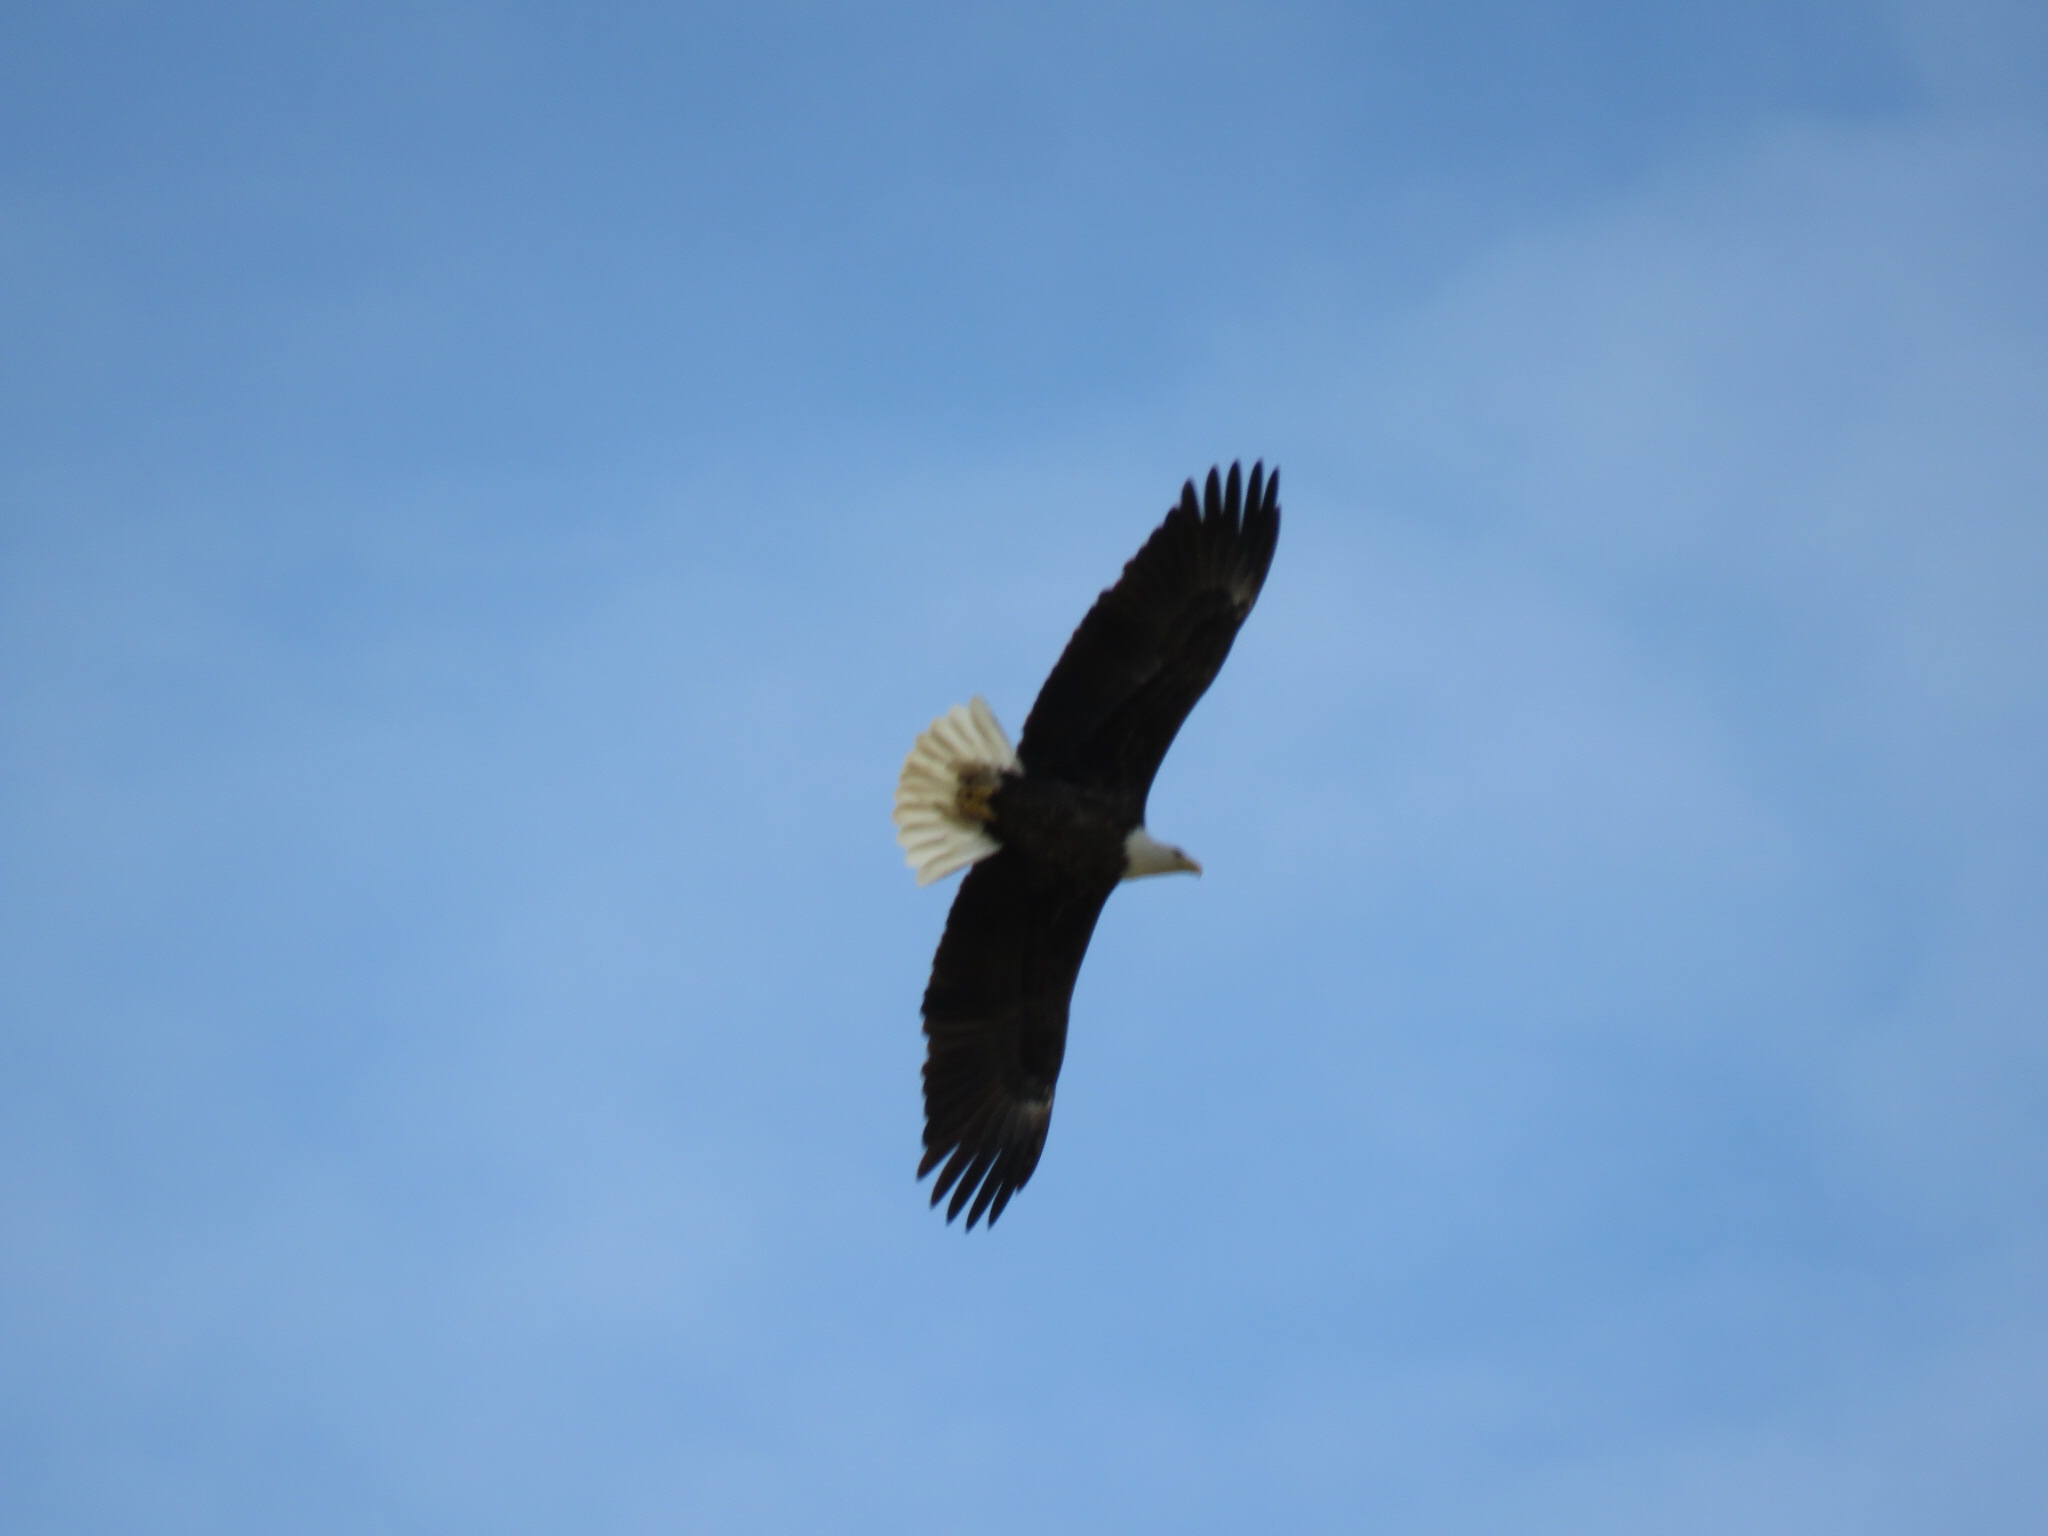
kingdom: Animalia
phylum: Chordata
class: Aves
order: Accipitriformes
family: Accipitridae
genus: Haliaeetus
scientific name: Haliaeetus leucocephalus
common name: Bald eagle
